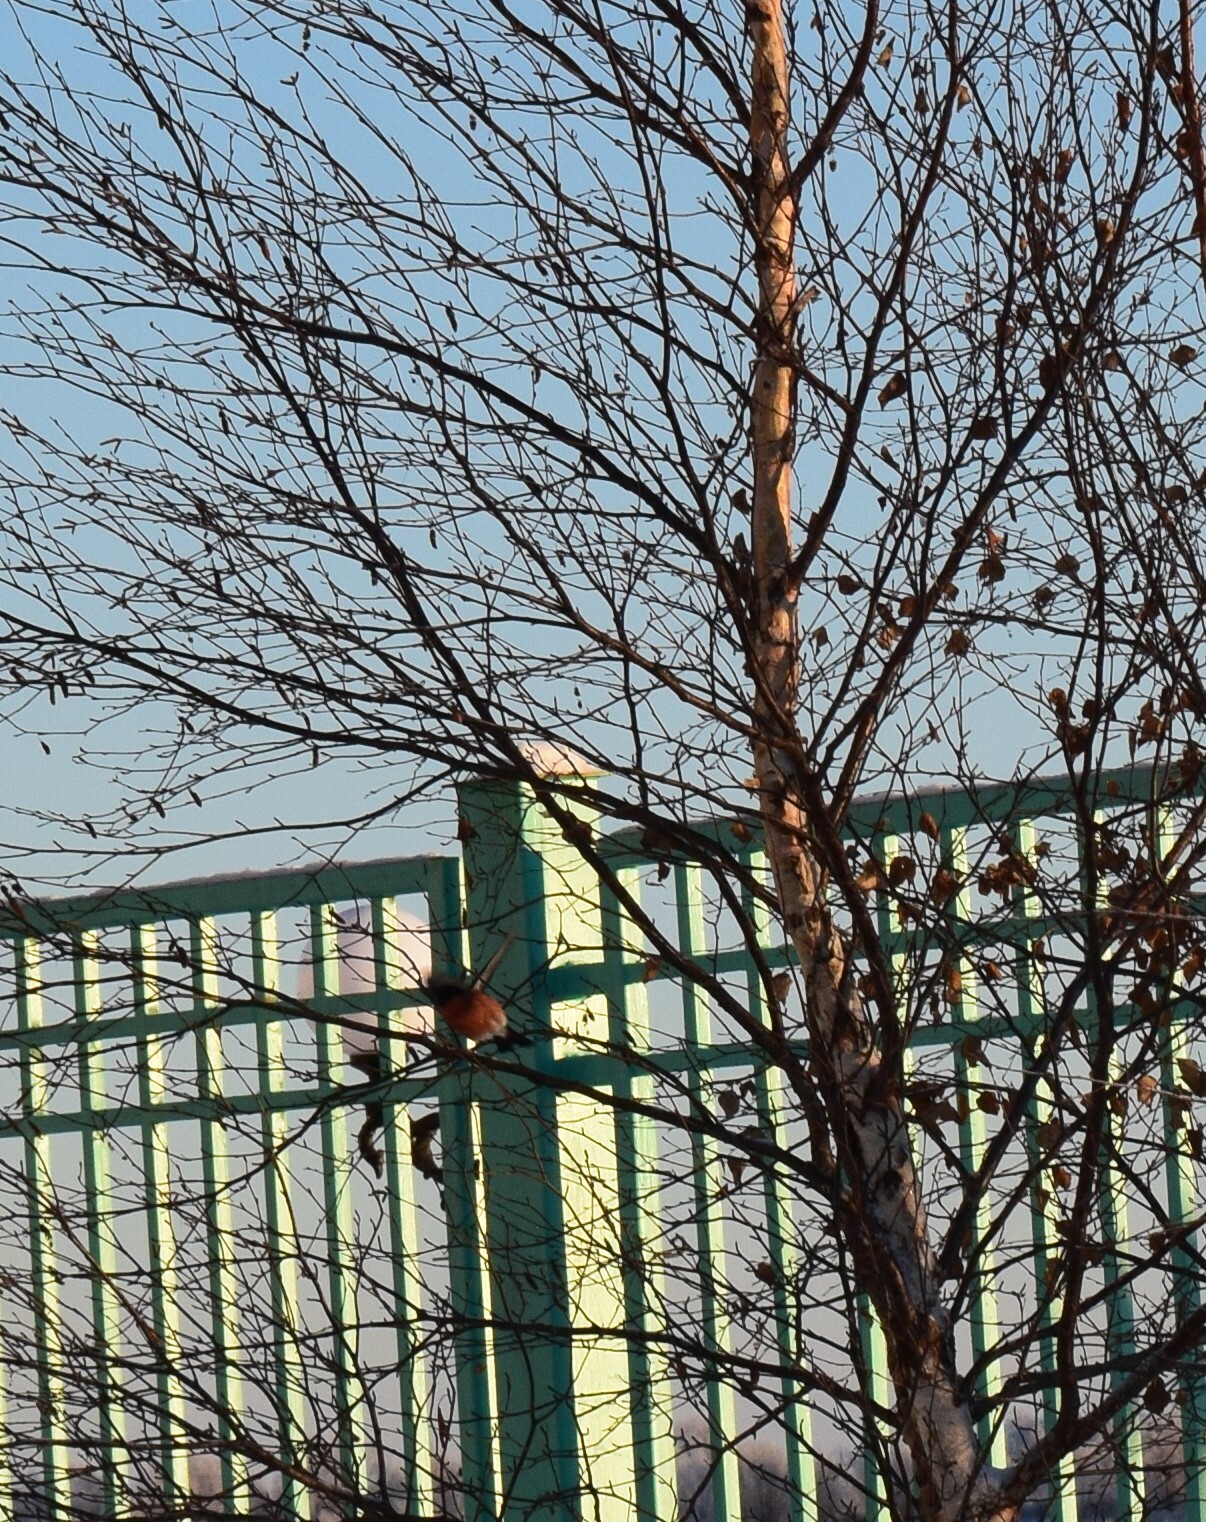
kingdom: Animalia
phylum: Chordata
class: Aves
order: Passeriformes
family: Fringillidae
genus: Pyrrhula
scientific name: Pyrrhula pyrrhula
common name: Eurasian bullfinch
